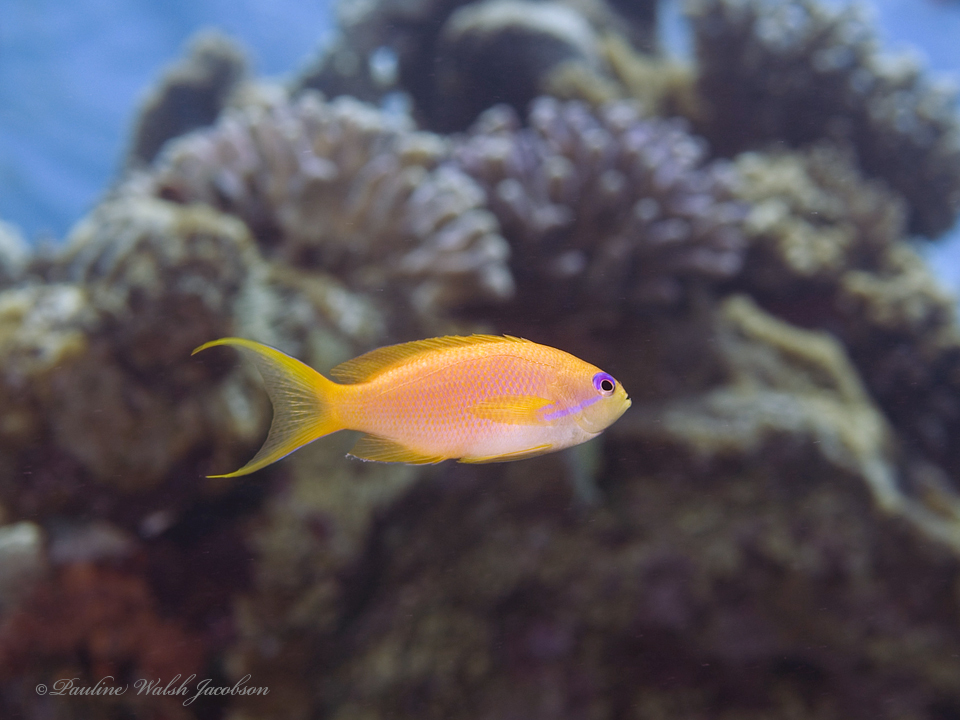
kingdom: Animalia
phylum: Chordata
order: Perciformes
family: Serranidae
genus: Pseudanthias
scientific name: Pseudanthias squamipinnis
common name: Scalefin anthias
